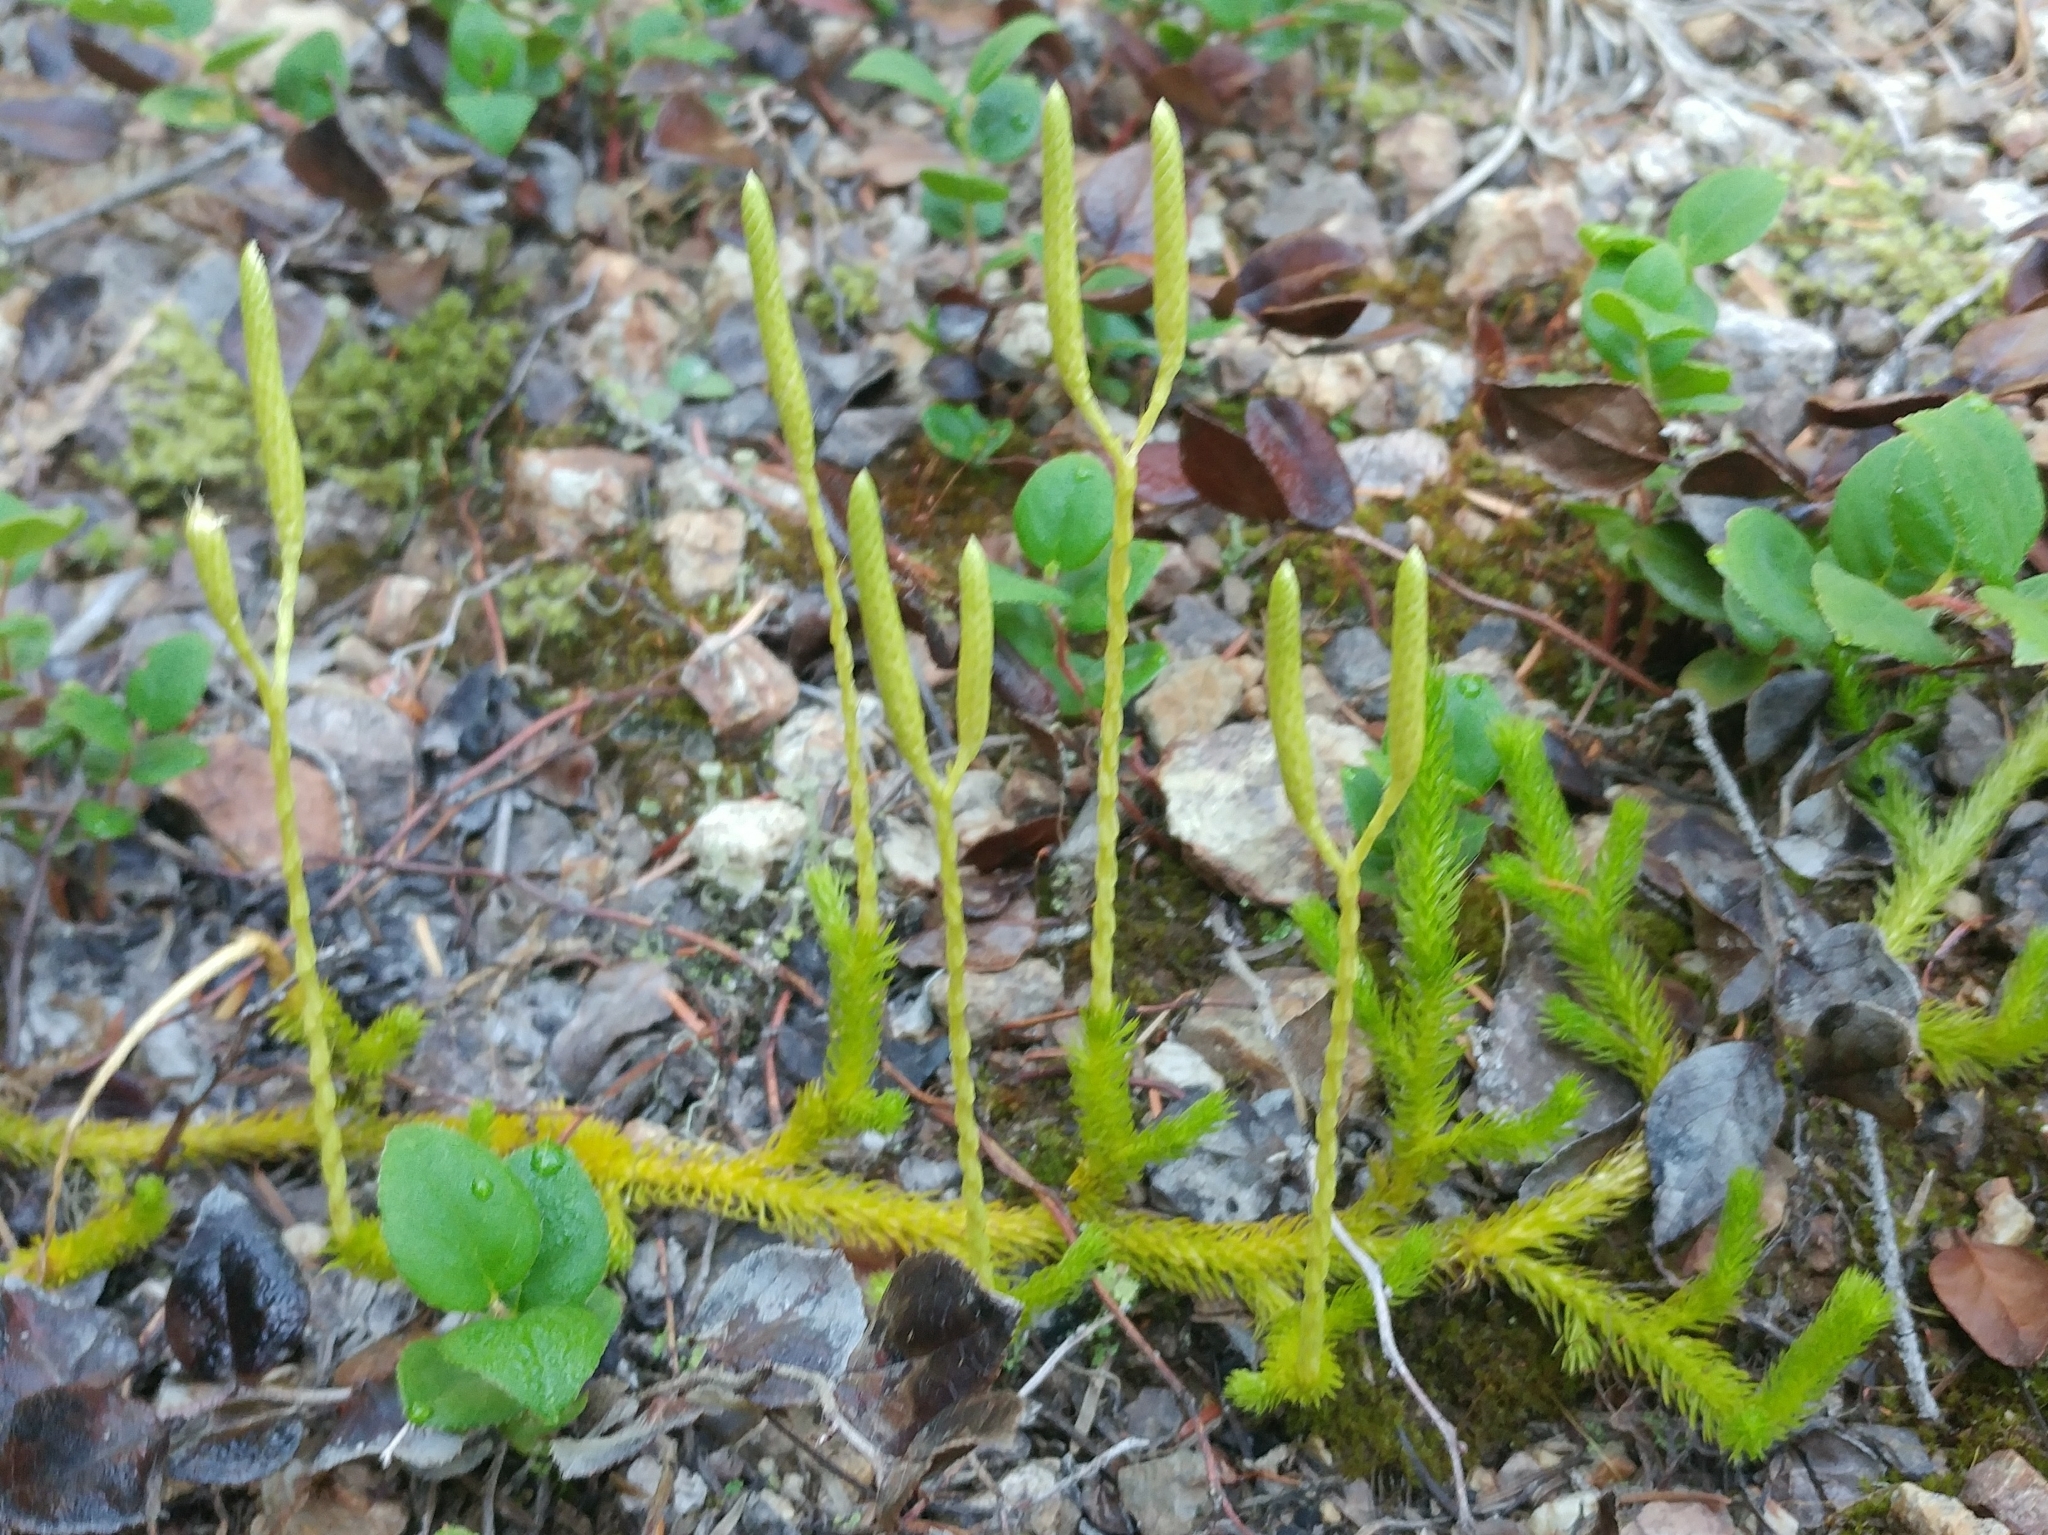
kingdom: Plantae
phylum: Tracheophyta
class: Lycopodiopsida
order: Lycopodiales
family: Lycopodiaceae
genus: Lycopodium
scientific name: Lycopodium clavatum
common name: Stag's-horn clubmoss
